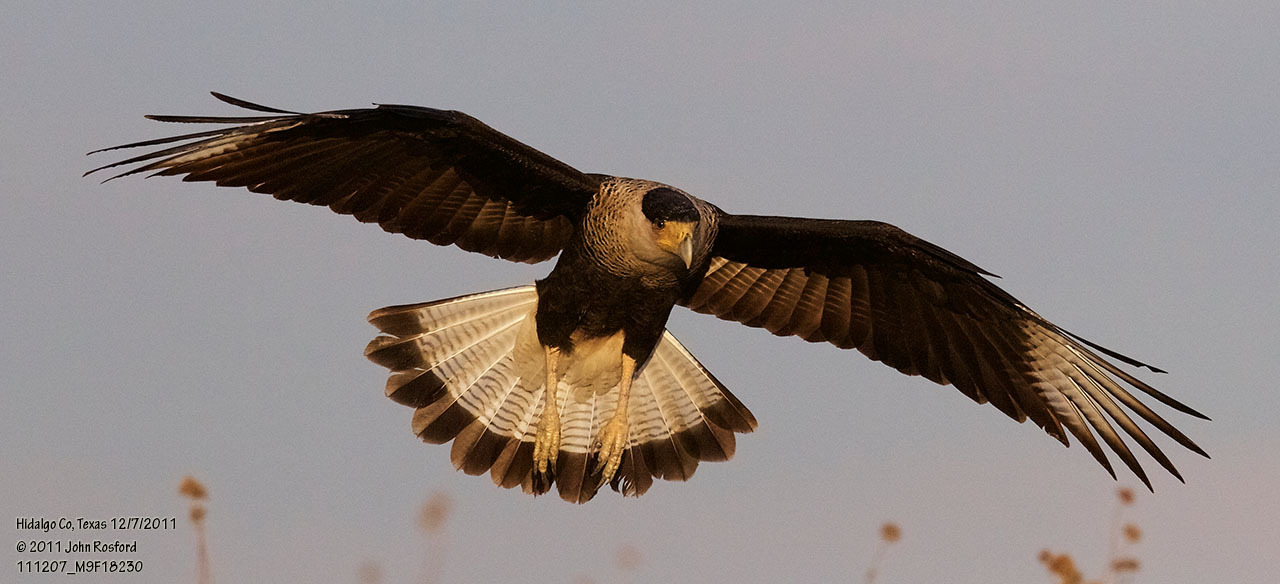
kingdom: Animalia
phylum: Chordata
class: Aves
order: Falconiformes
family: Falconidae
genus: Caracara
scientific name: Caracara plancus
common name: Southern caracara
